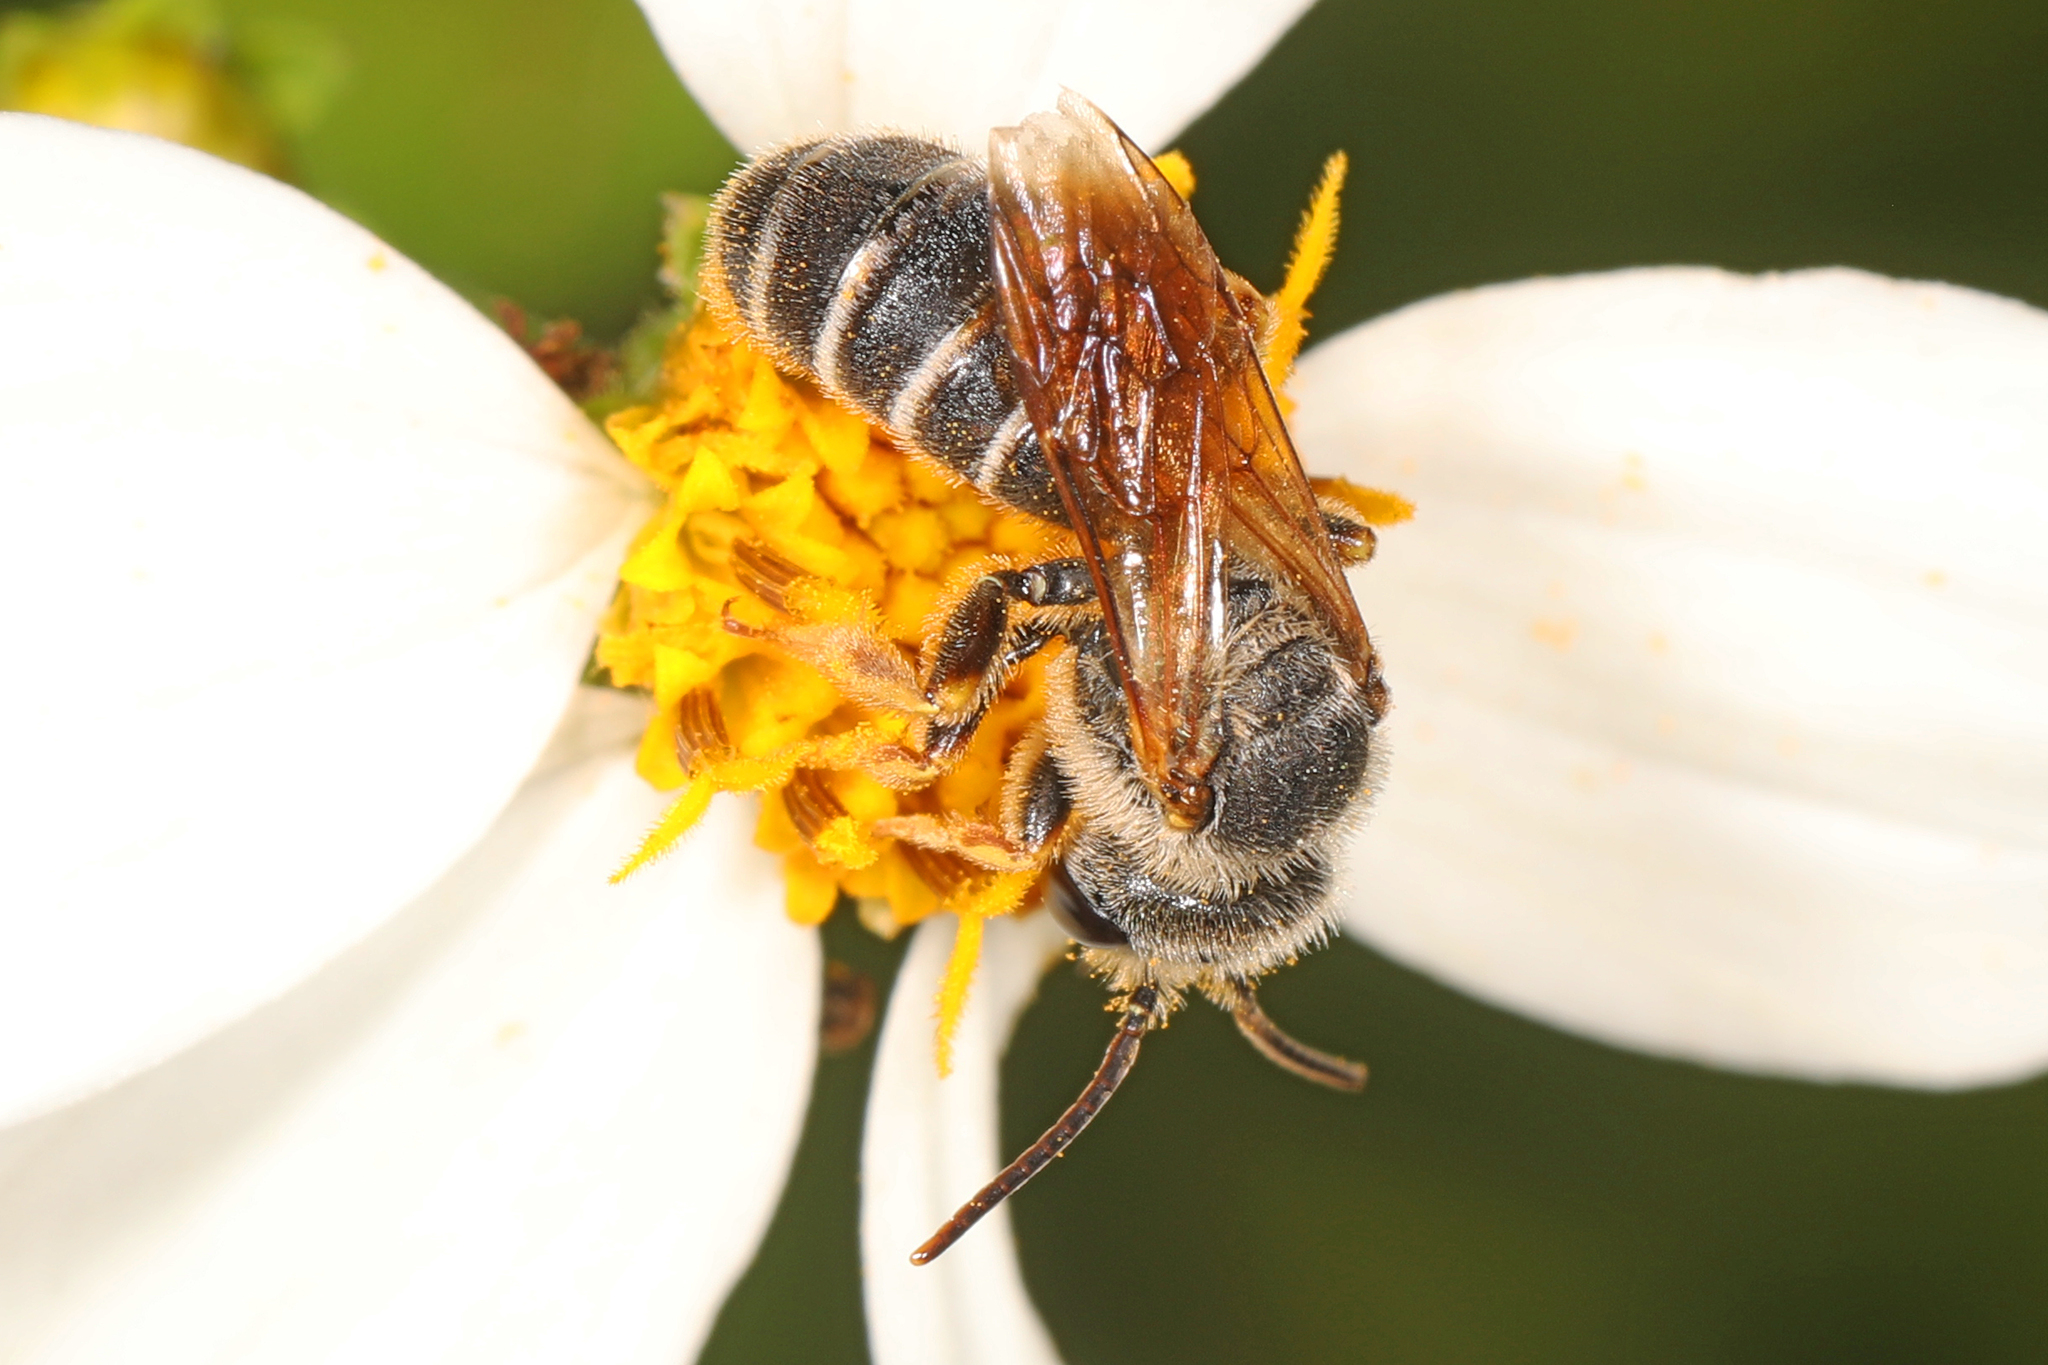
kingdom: Animalia
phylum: Arthropoda
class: Insecta
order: Hymenoptera
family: Halictidae
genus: Halictus
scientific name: Halictus poeyi
